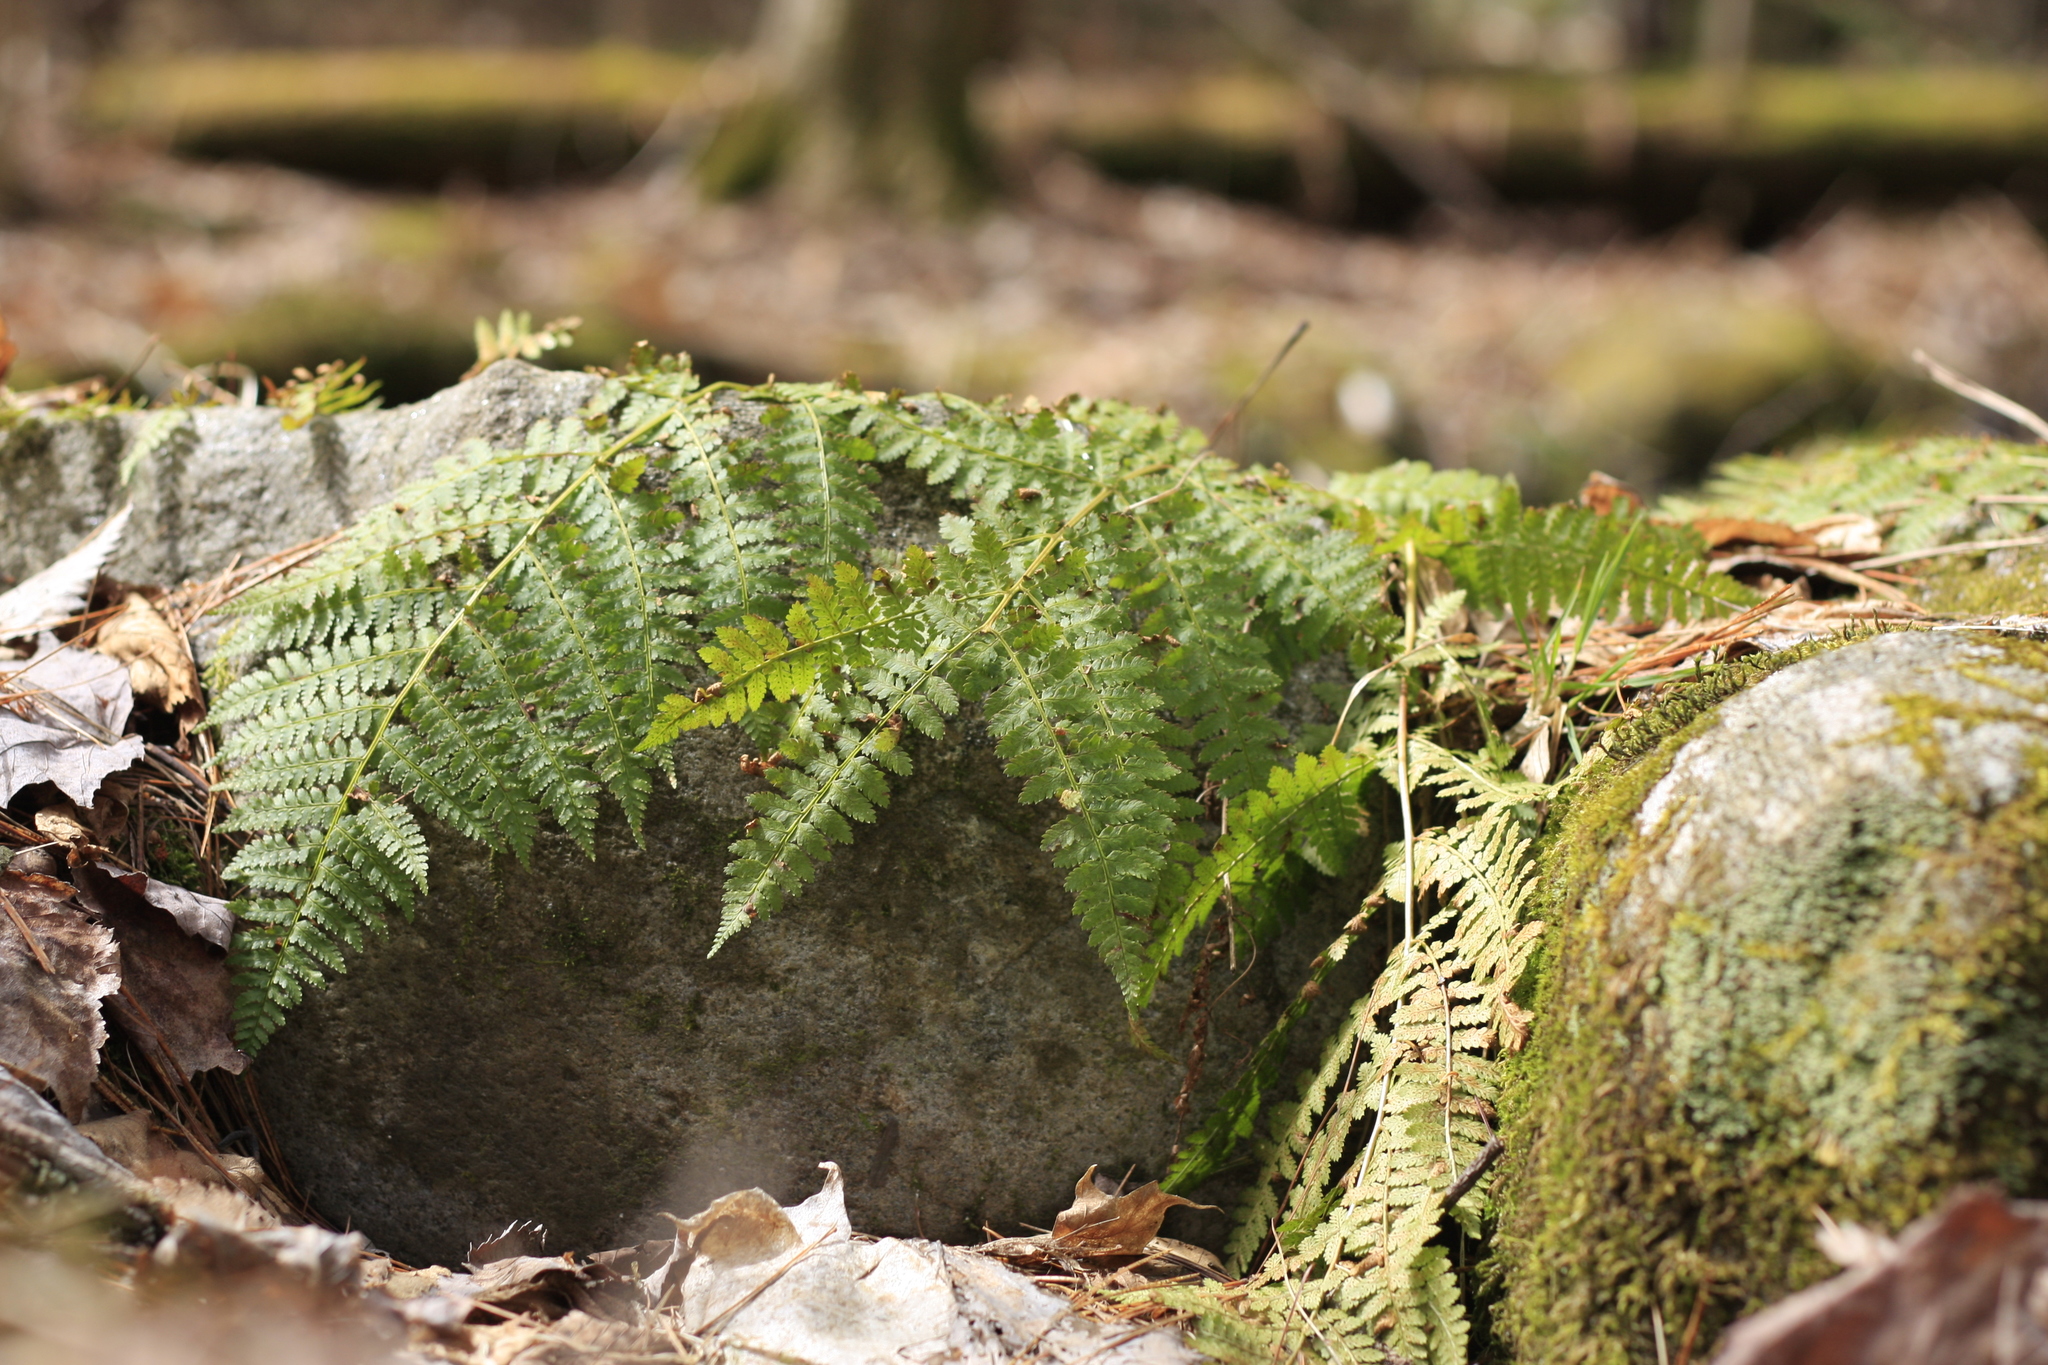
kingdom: Plantae
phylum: Tracheophyta
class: Polypodiopsida
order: Polypodiales
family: Dryopteridaceae
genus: Dryopteris
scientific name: Dryopteris intermedia
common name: Evergreen wood fern
